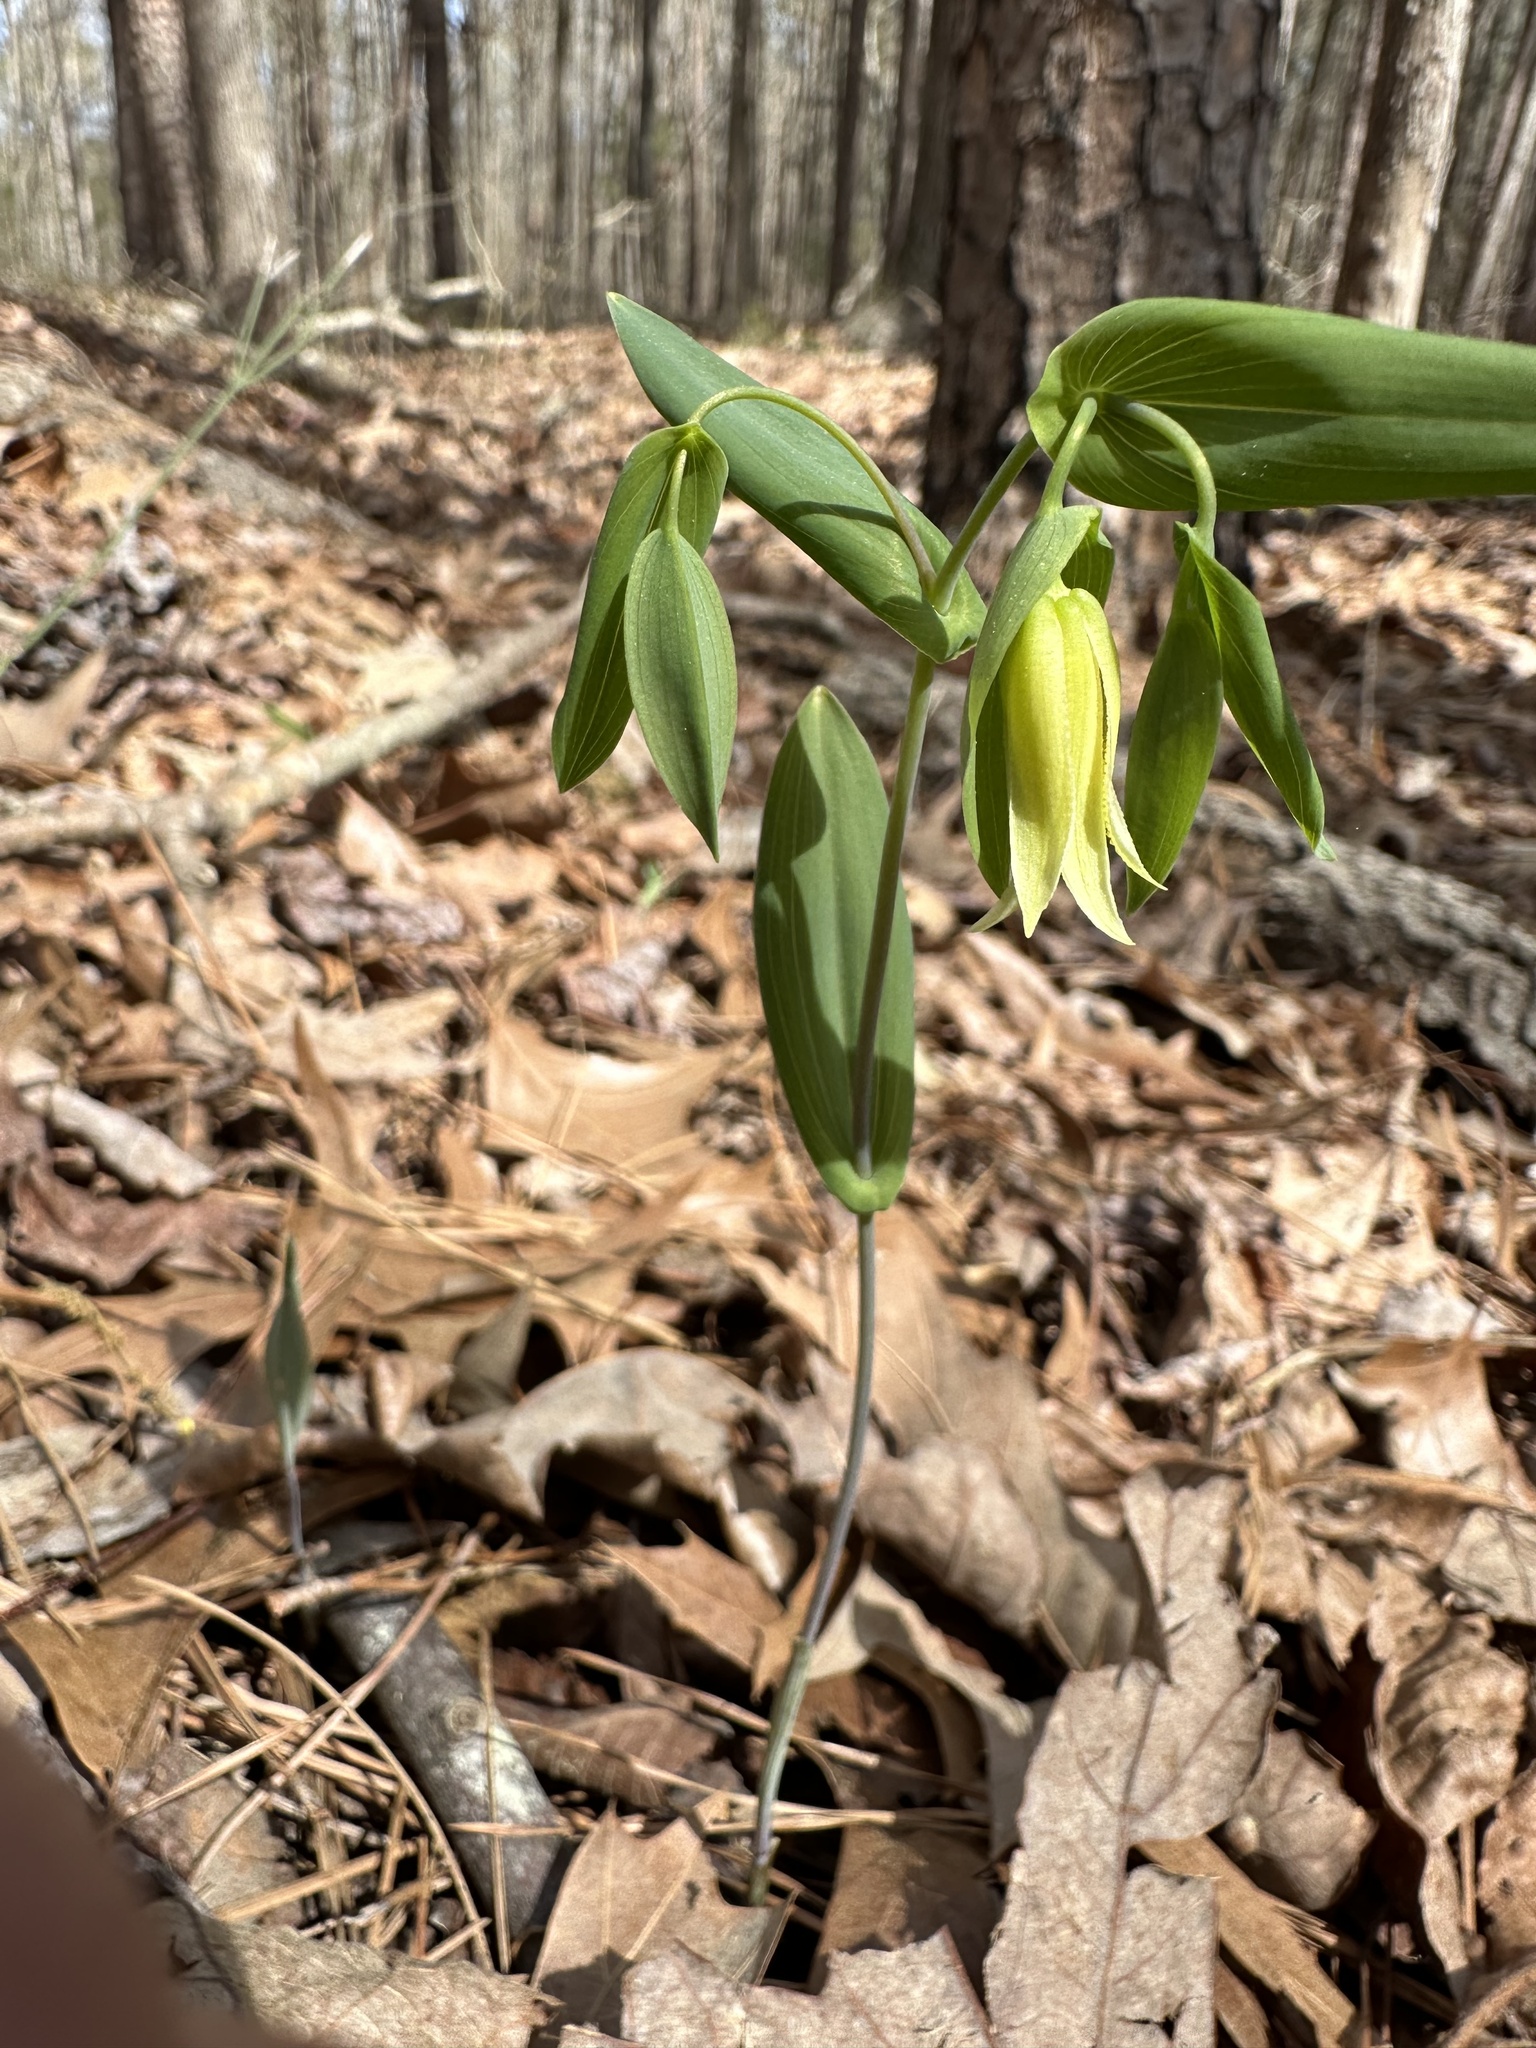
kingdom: Plantae
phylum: Tracheophyta
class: Liliopsida
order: Liliales
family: Colchicaceae
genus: Uvularia
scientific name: Uvularia perfoliata
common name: Perfoliate bellwort
